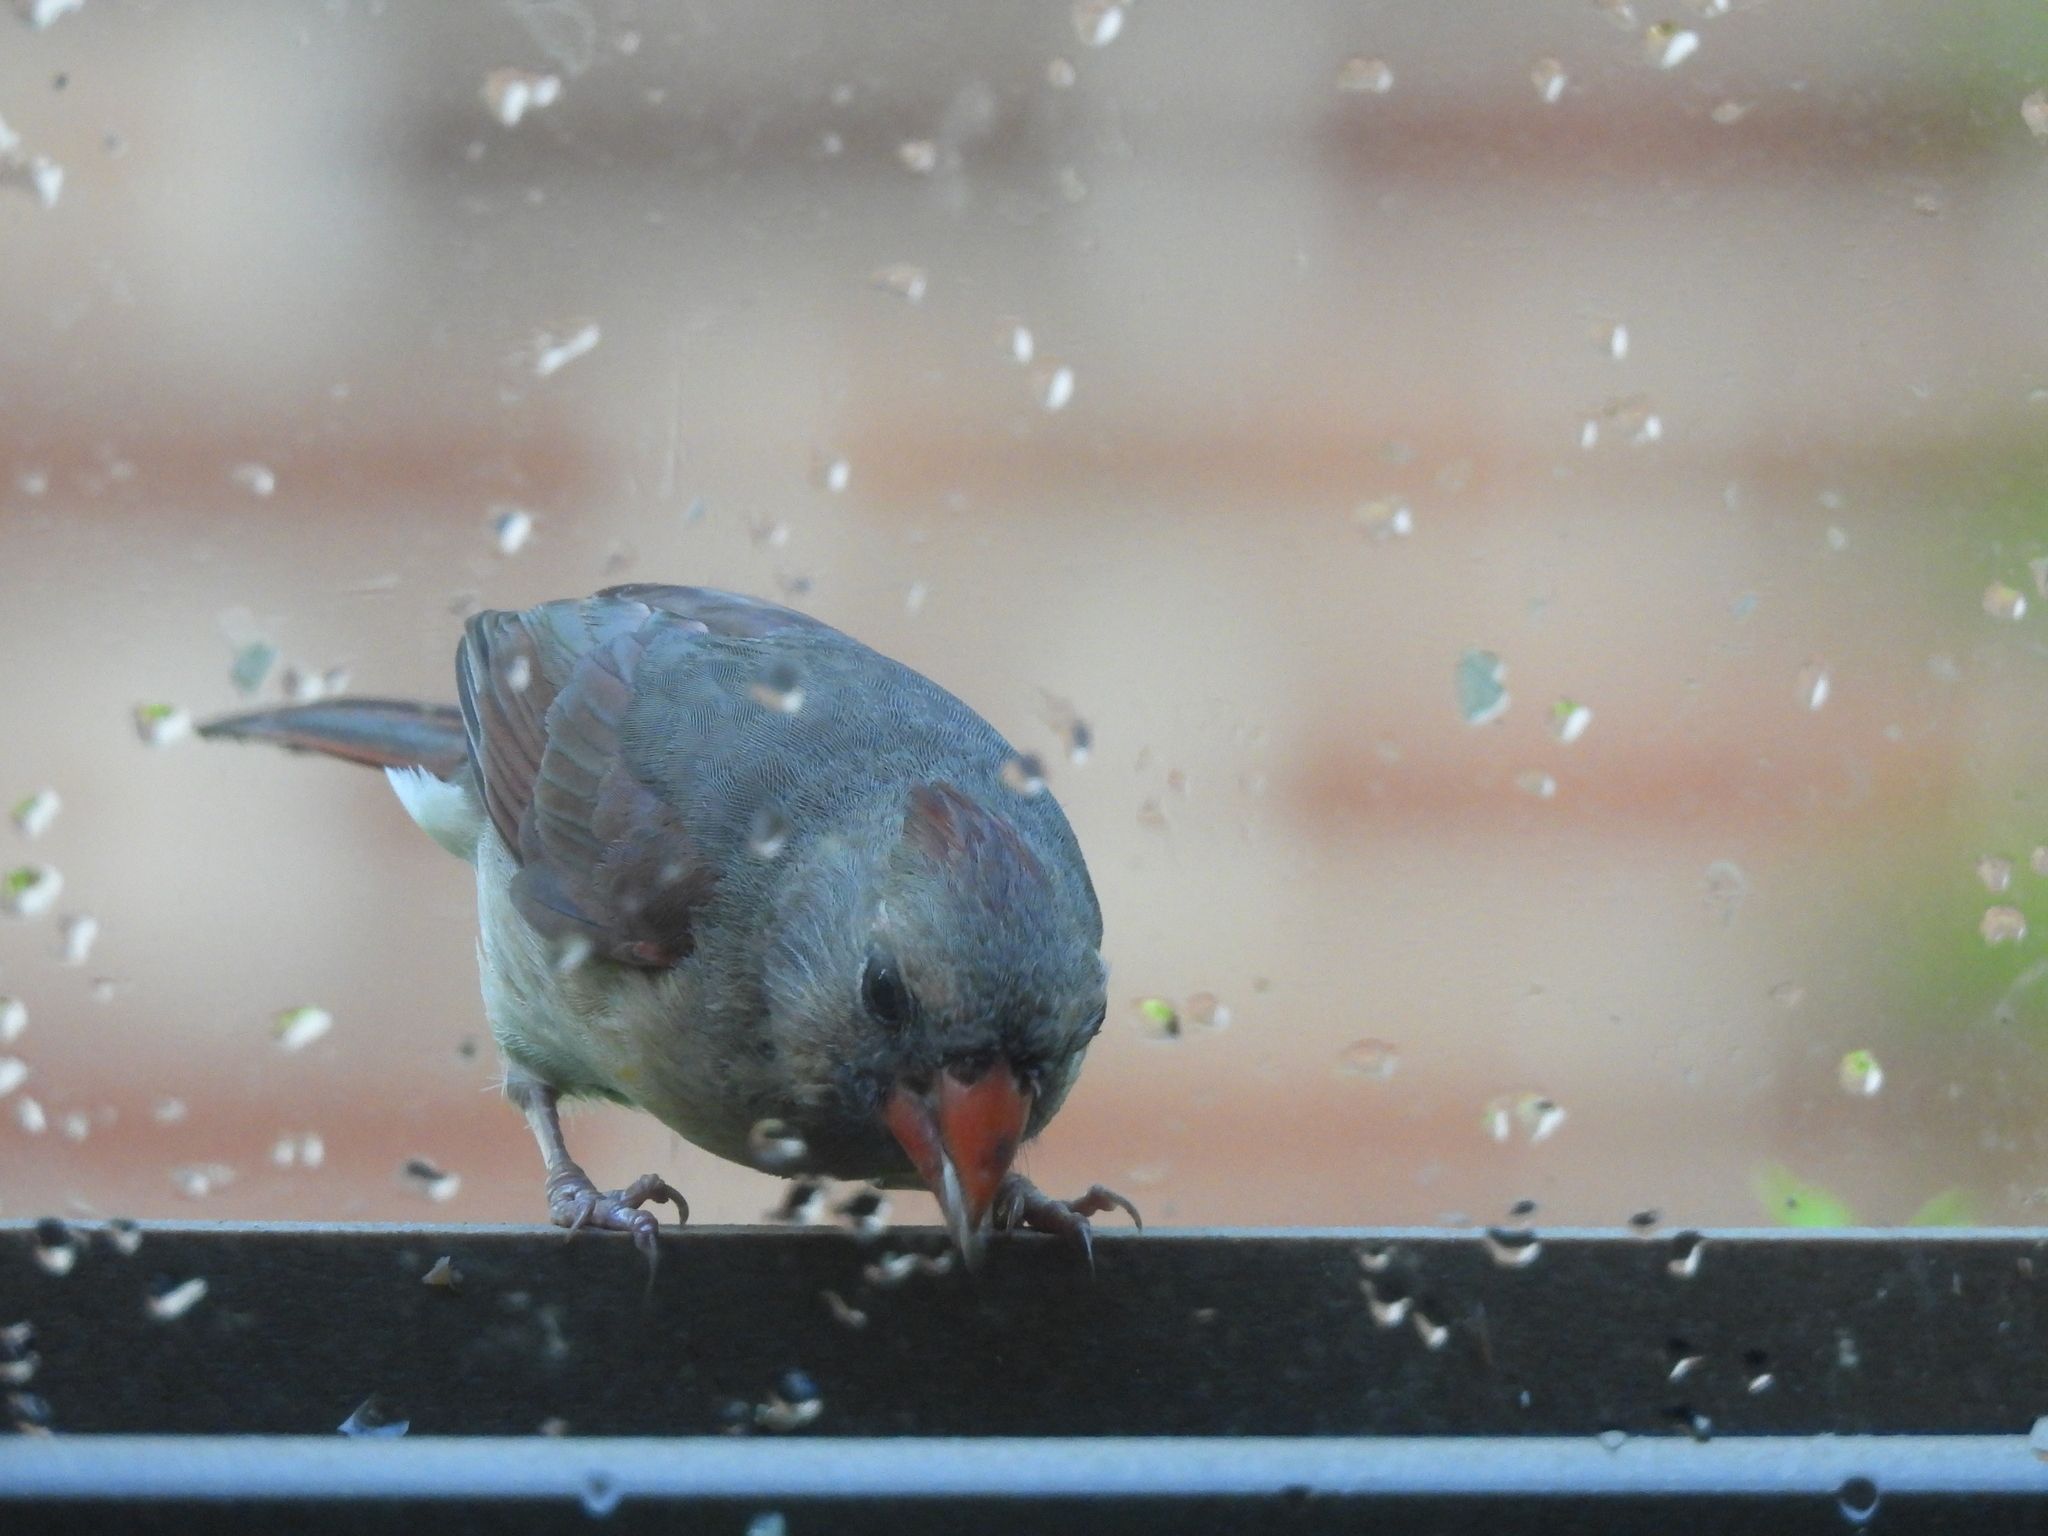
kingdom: Animalia
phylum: Chordata
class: Aves
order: Passeriformes
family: Cardinalidae
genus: Cardinalis
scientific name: Cardinalis cardinalis
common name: Northern cardinal
